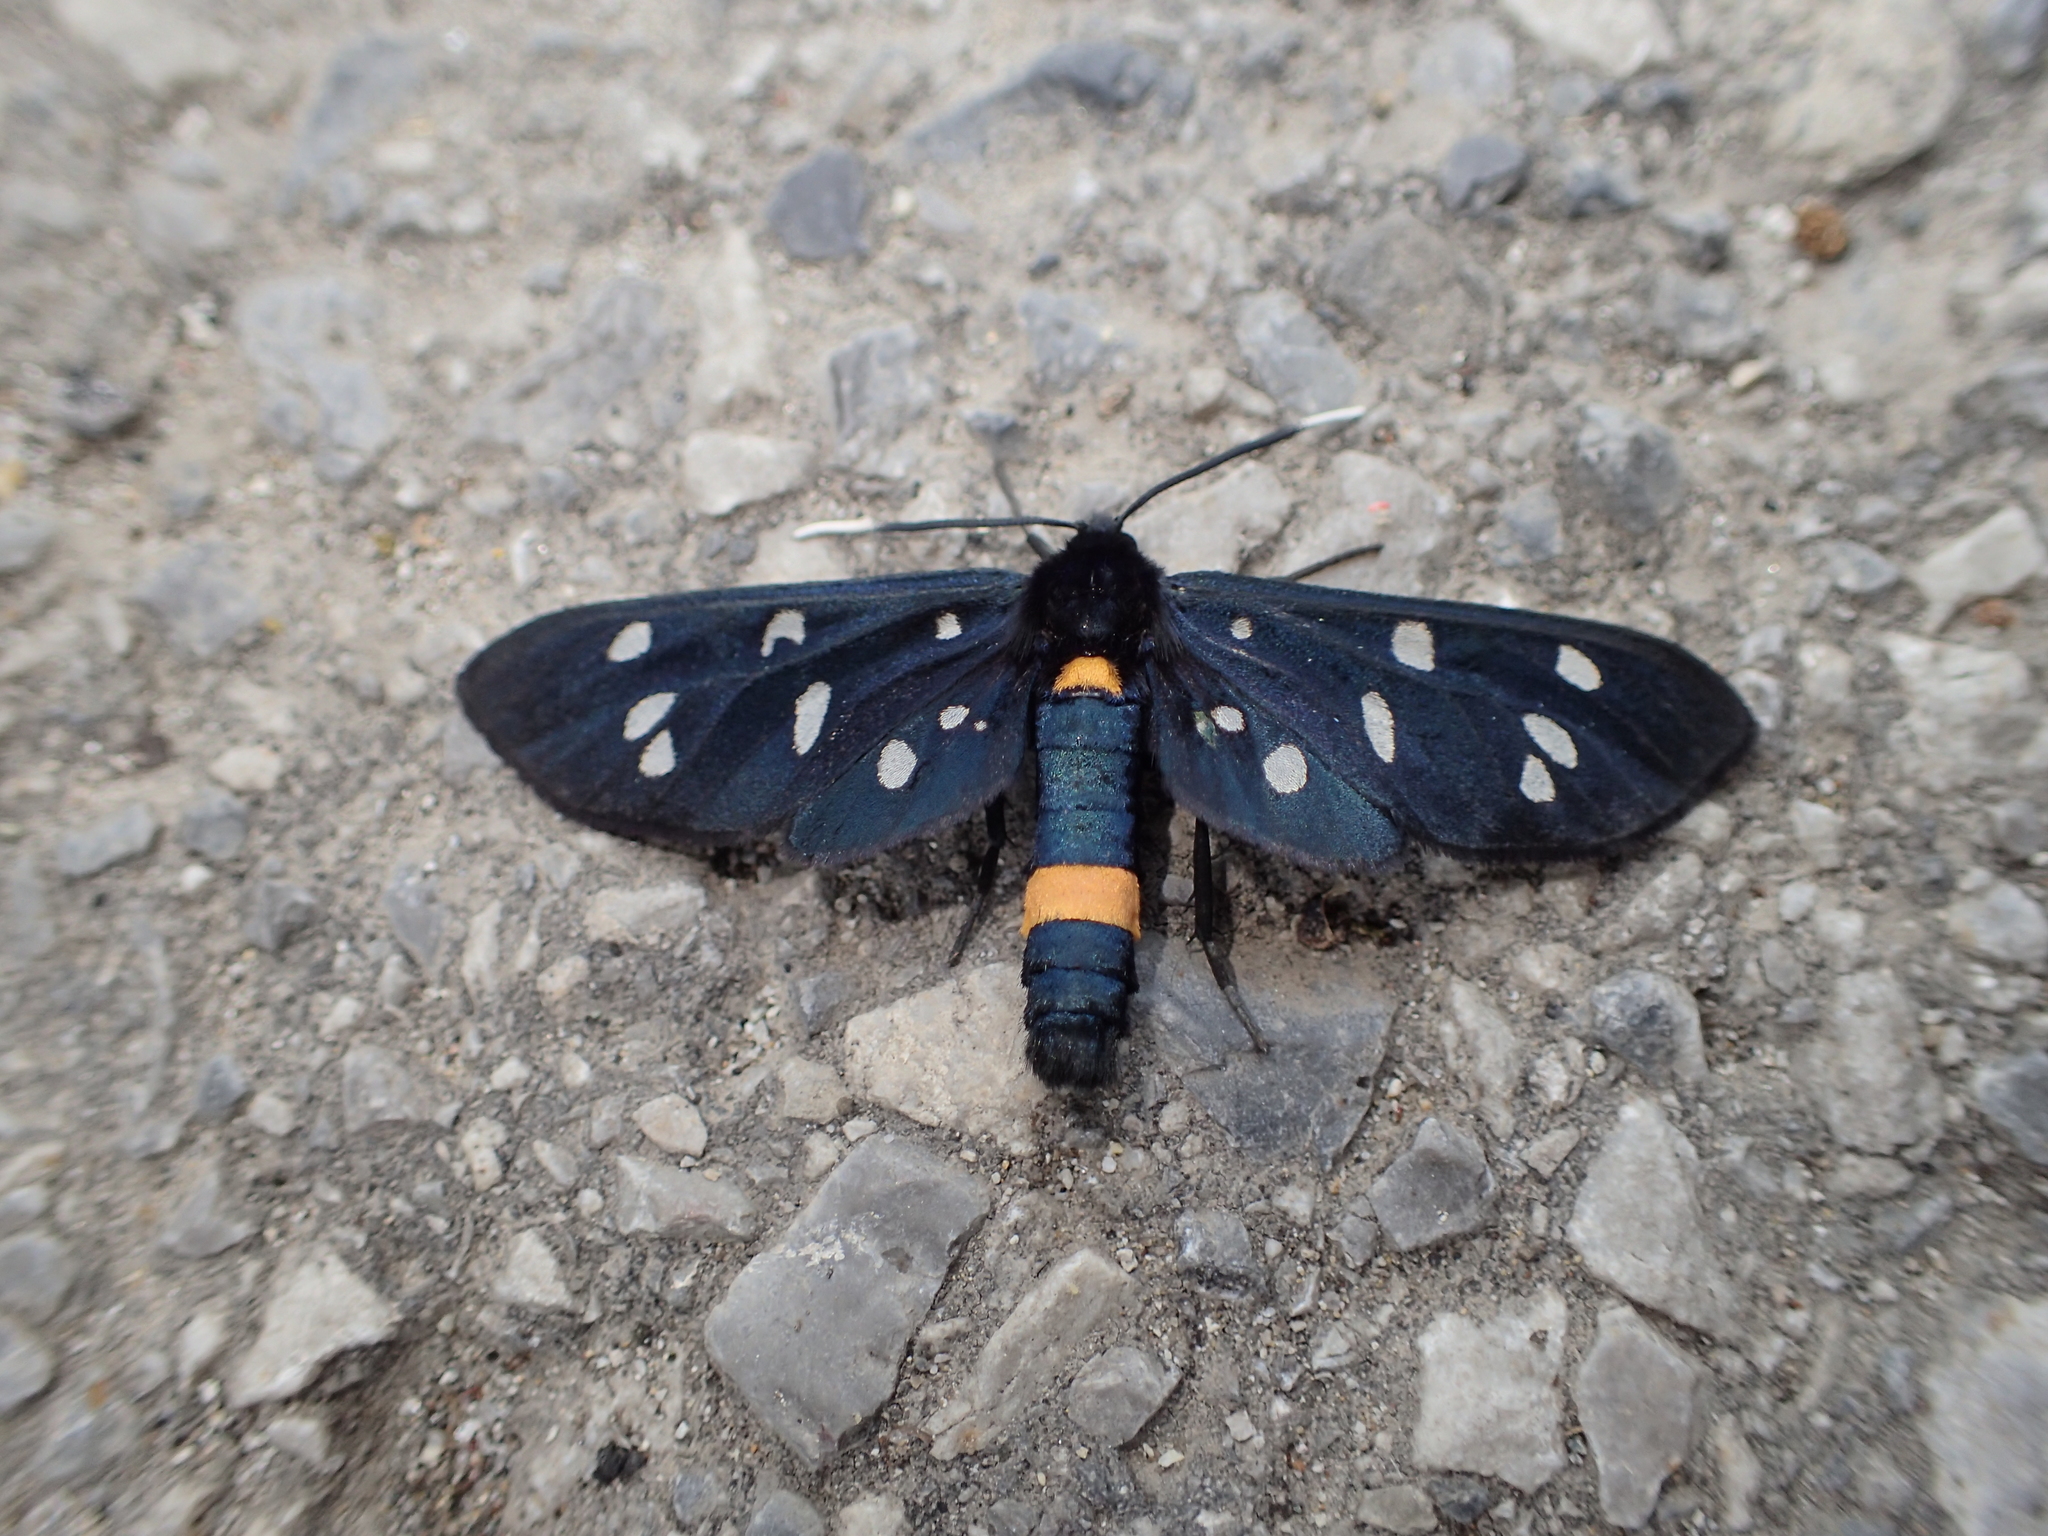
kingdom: Animalia
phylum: Arthropoda
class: Insecta
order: Lepidoptera
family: Erebidae
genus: Amata
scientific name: Amata phegea
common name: Nine-spotted
